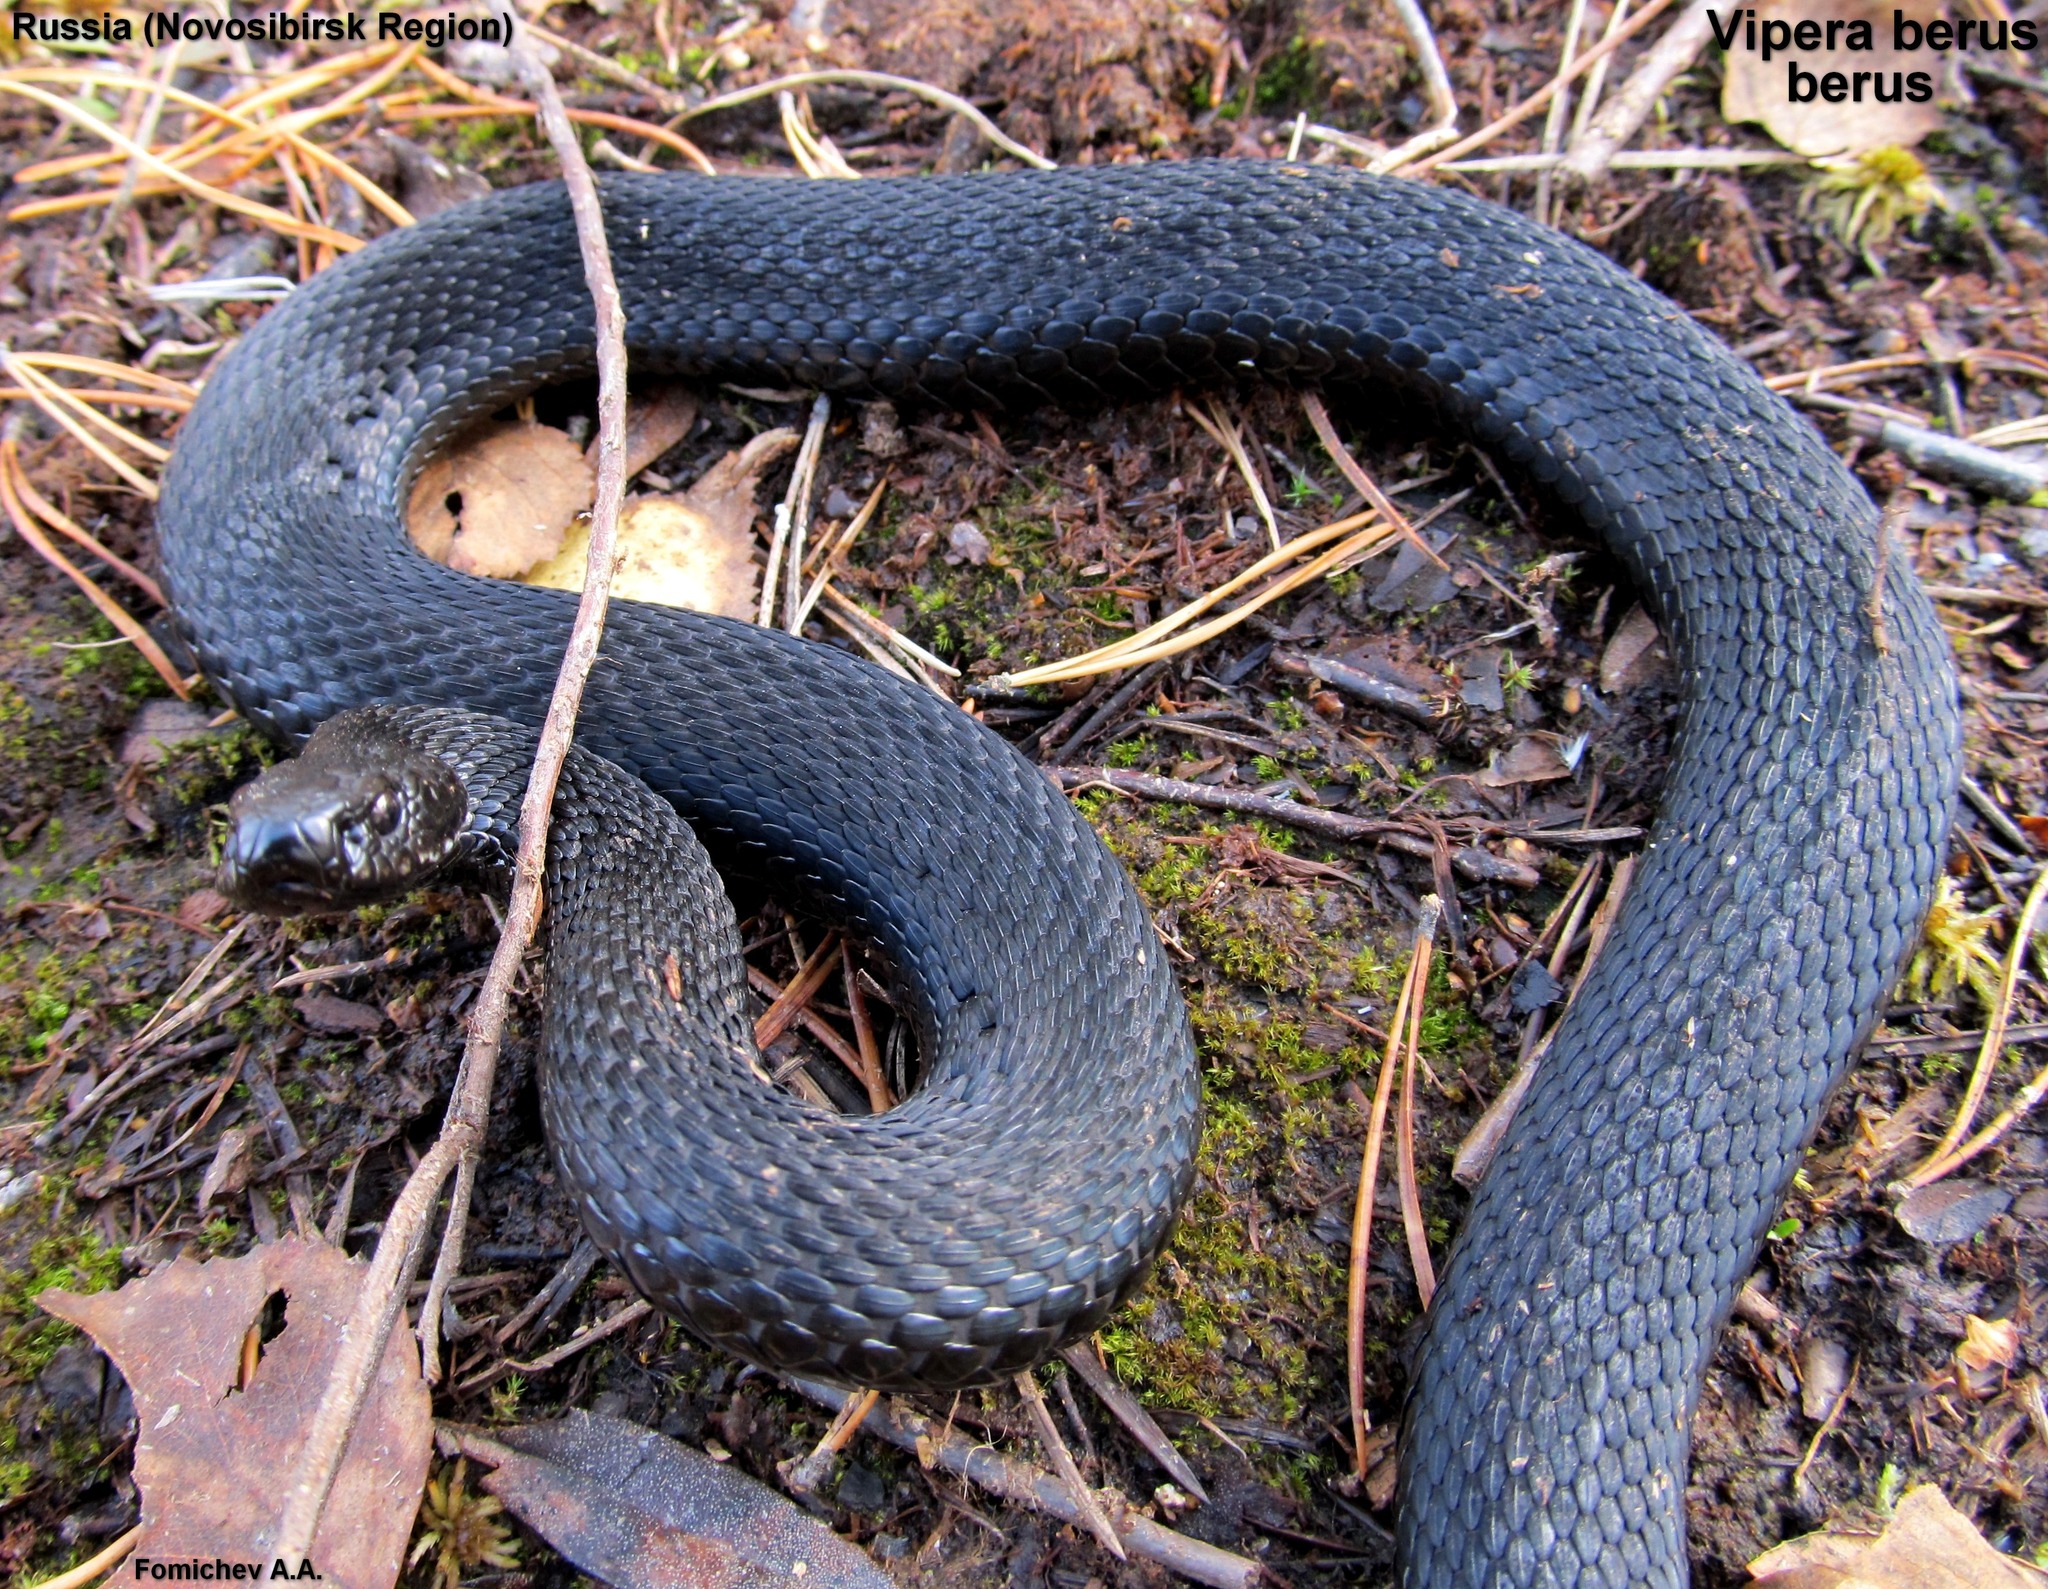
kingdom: Animalia
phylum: Chordata
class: Squamata
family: Viperidae
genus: Vipera
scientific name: Vipera berus
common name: Adder
